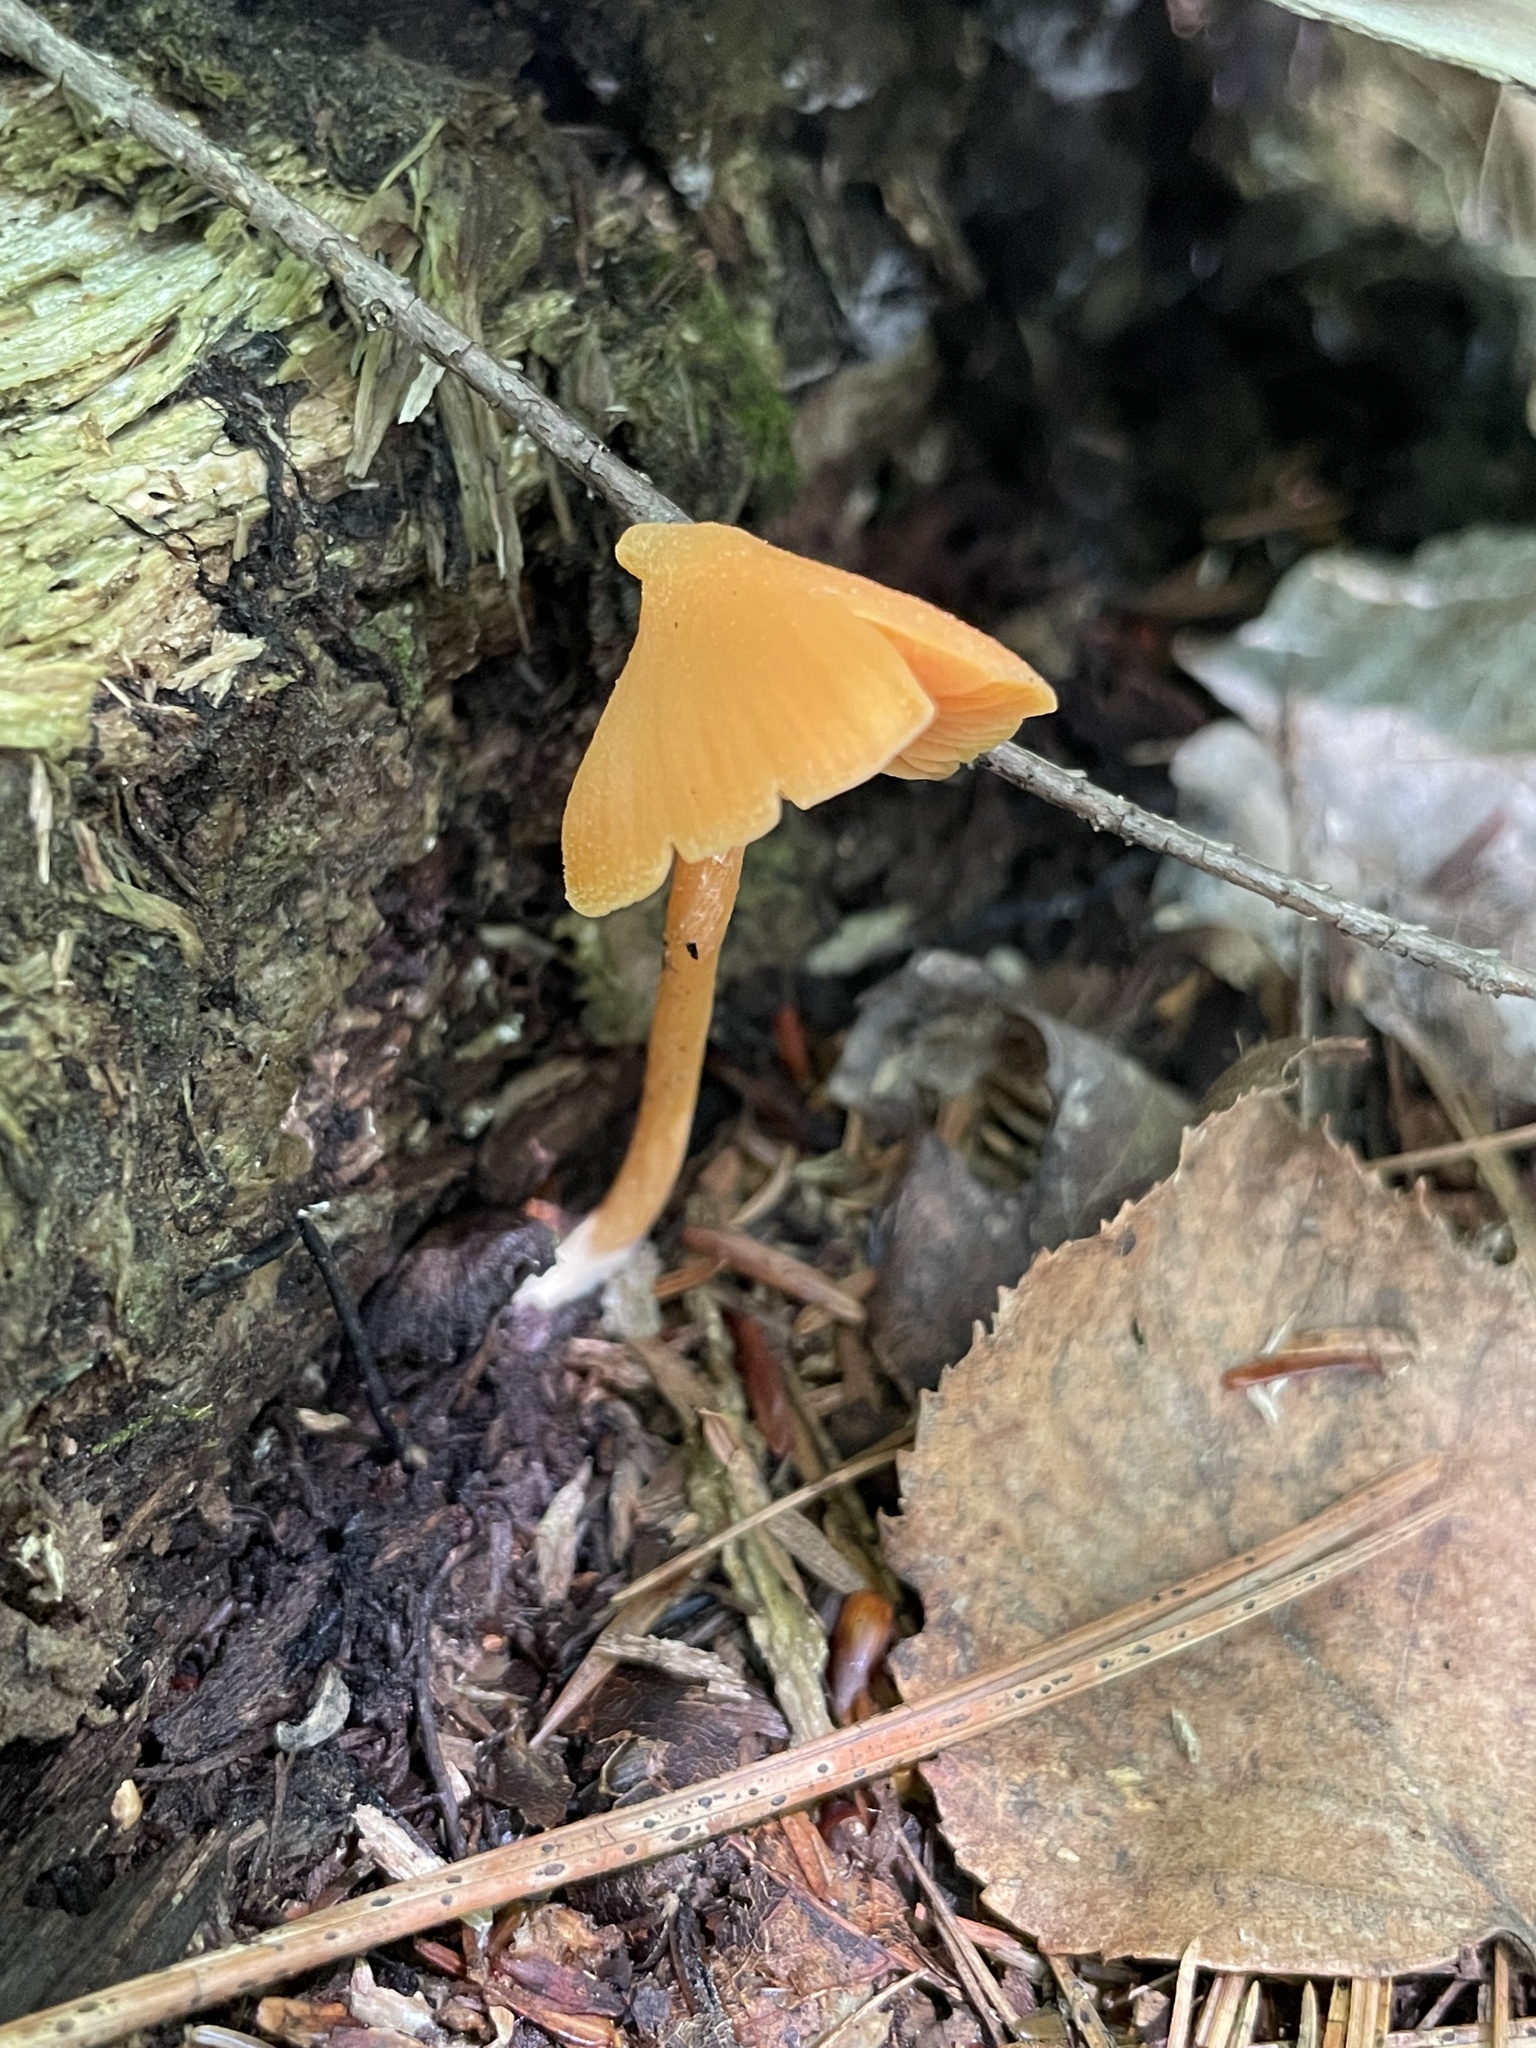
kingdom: Fungi
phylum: Basidiomycota
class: Agaricomycetes
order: Agaricales
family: Entolomataceae
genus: Entoloma
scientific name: Entoloma quadratum
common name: Salmon pinkgill
